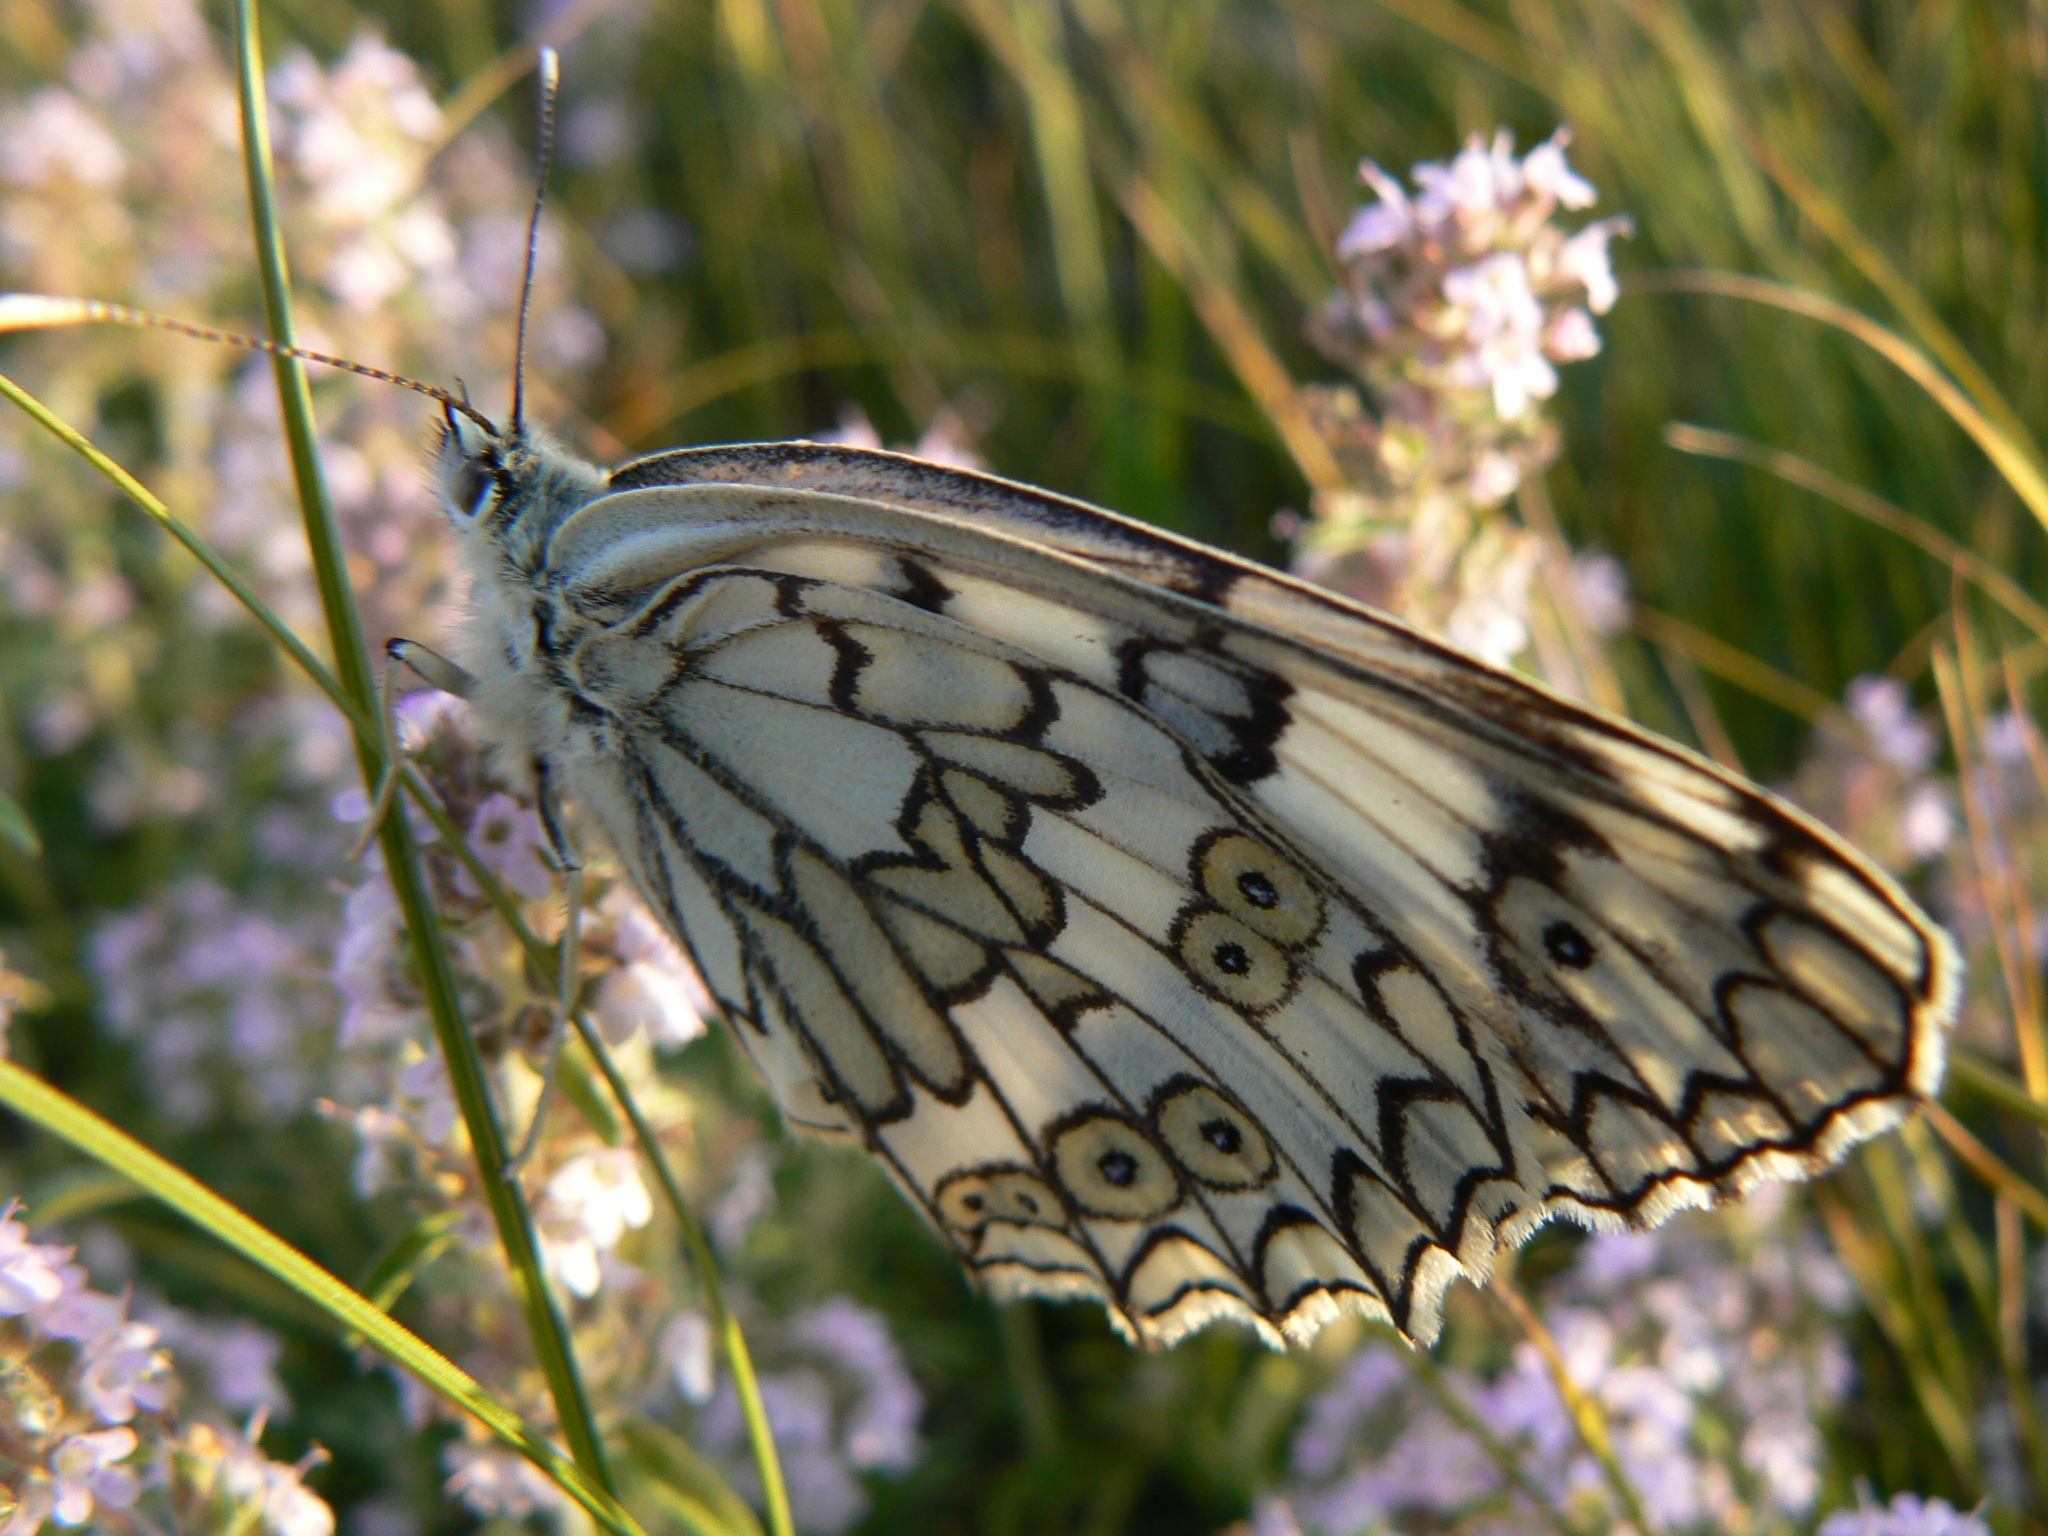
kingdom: Animalia
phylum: Arthropoda
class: Insecta
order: Lepidoptera
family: Nymphalidae
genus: Melanargia
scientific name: Melanargia japygia
